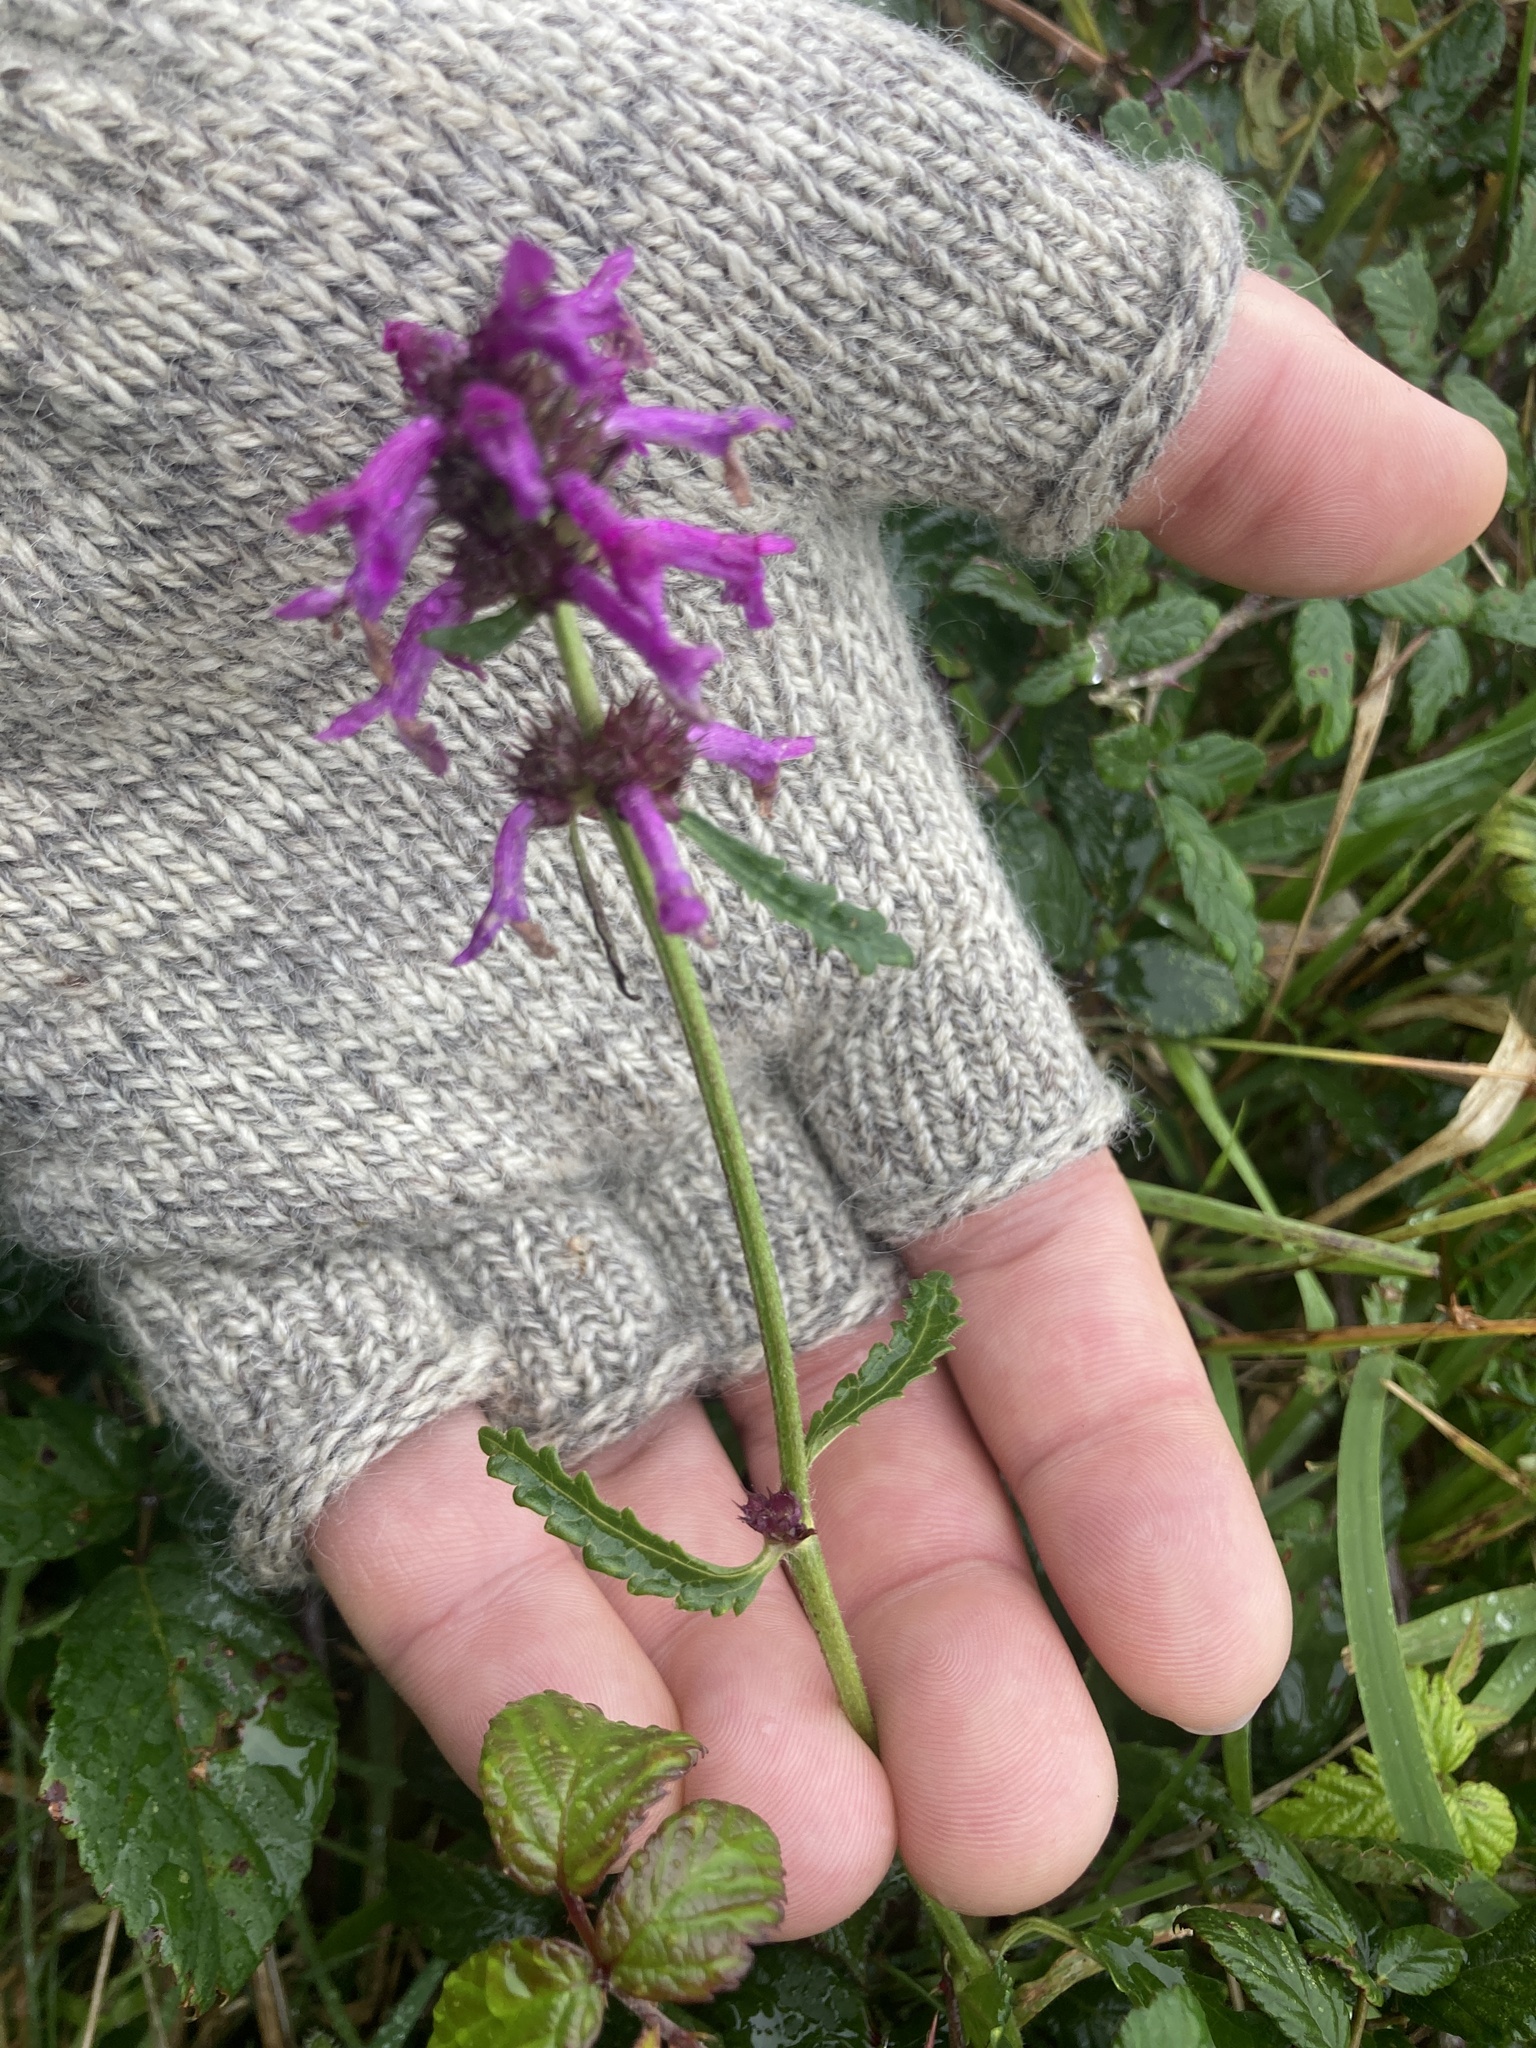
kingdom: Plantae
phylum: Tracheophyta
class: Magnoliopsida
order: Lamiales
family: Lamiaceae
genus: Betonica
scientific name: Betonica officinalis
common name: Bishop's-wort
